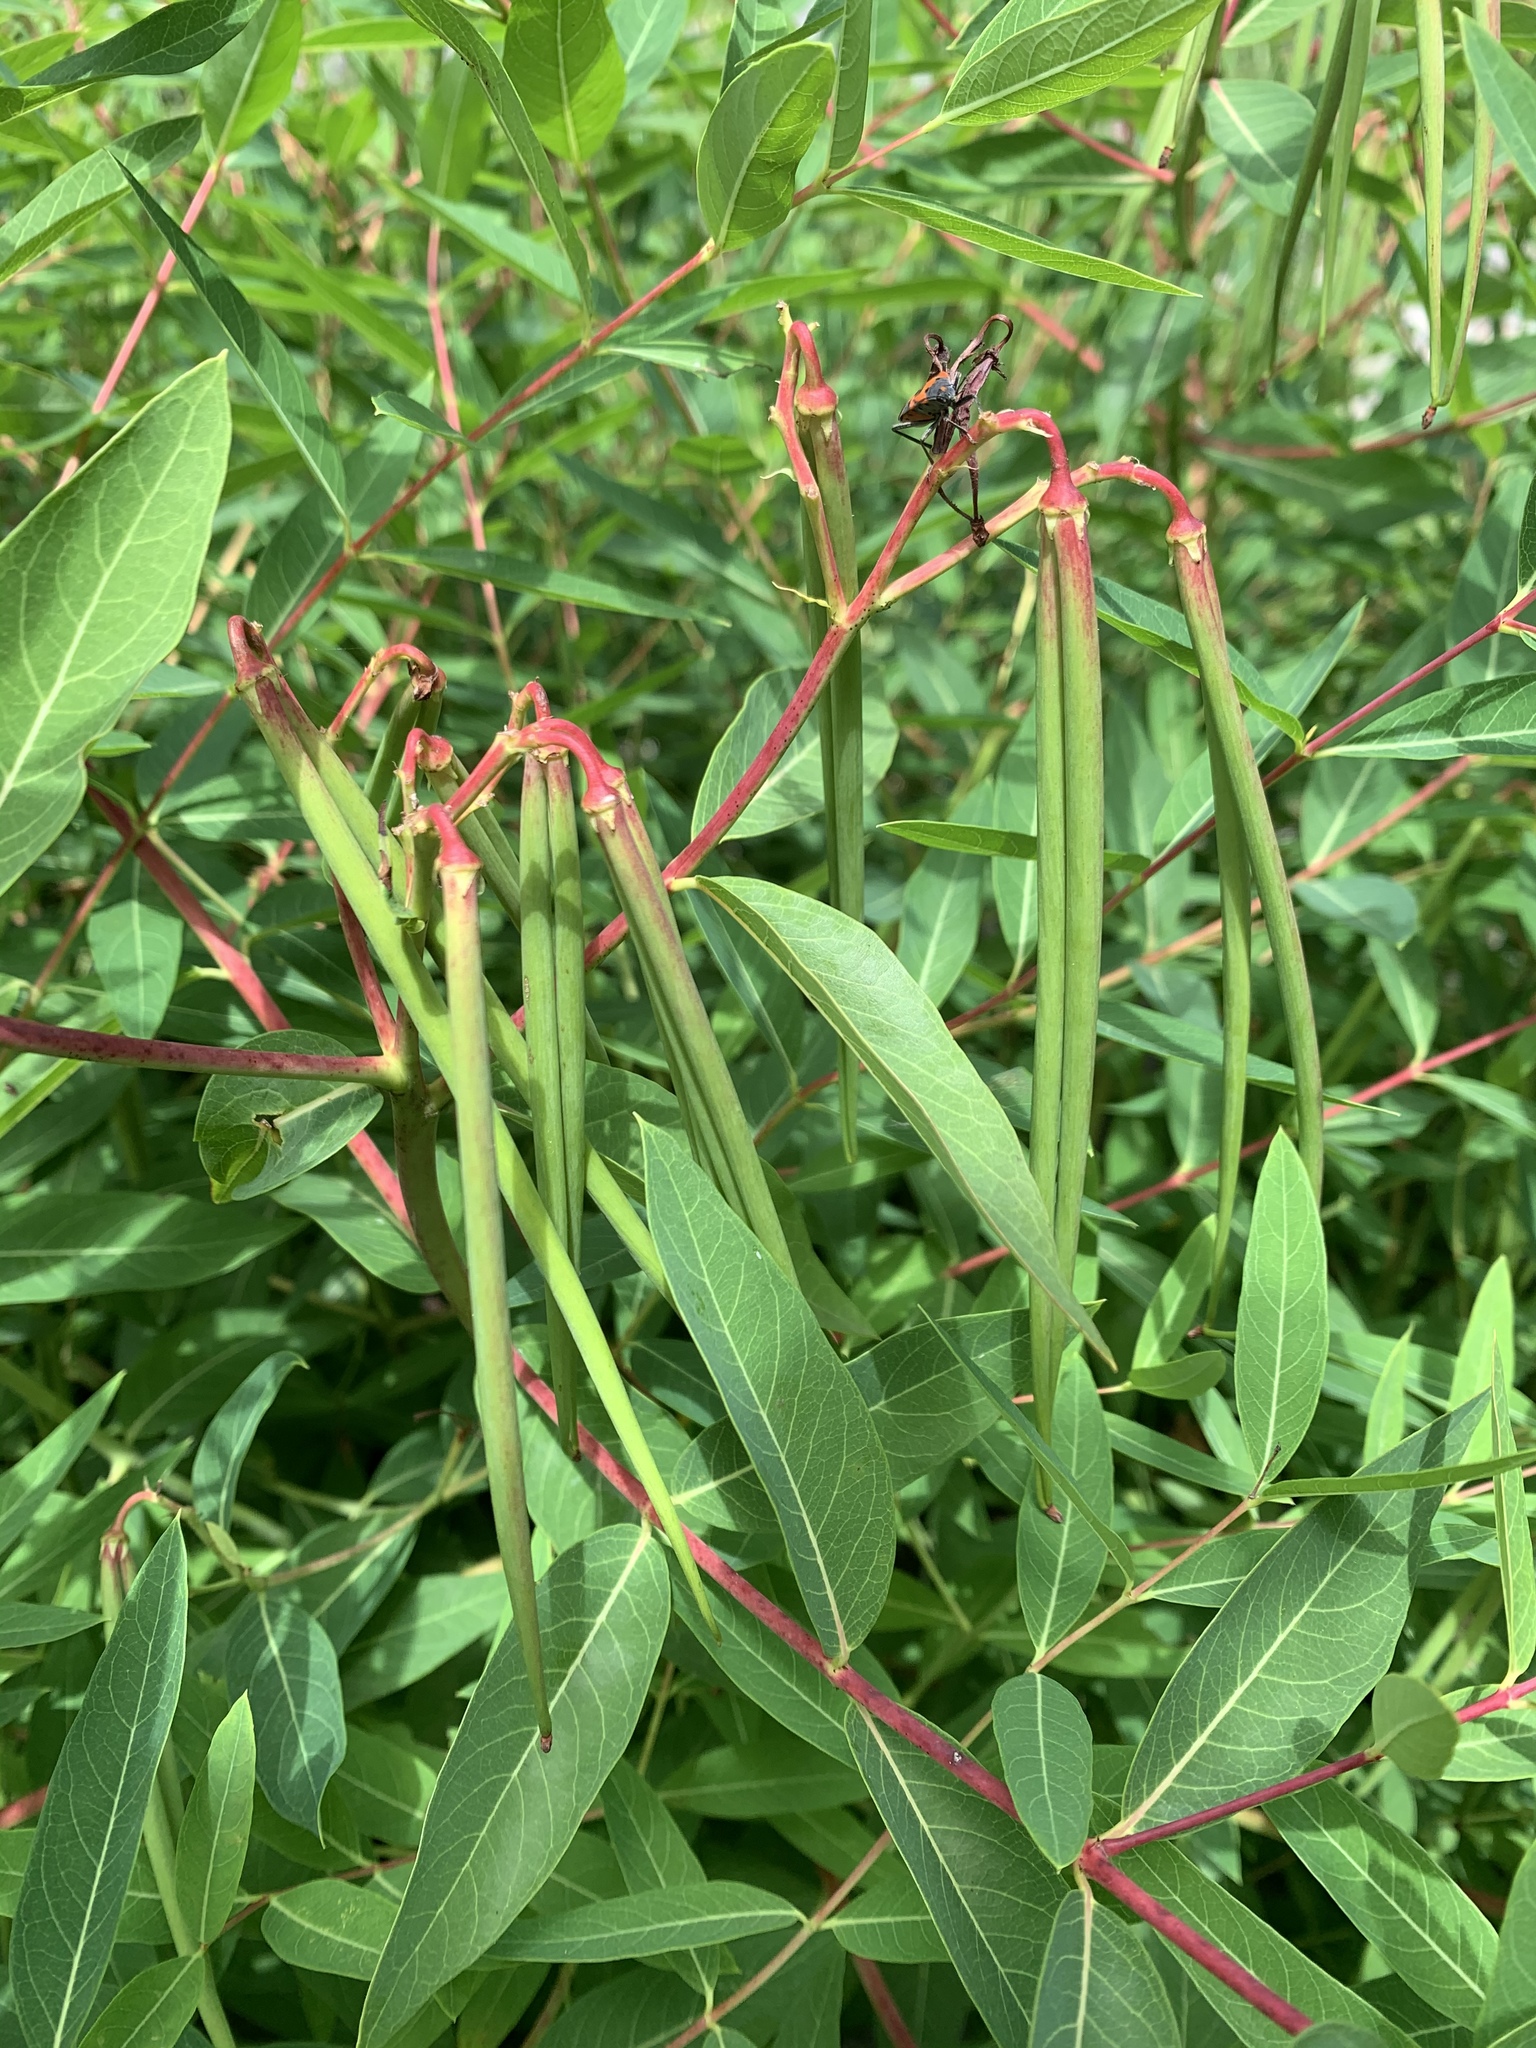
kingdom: Plantae
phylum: Tracheophyta
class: Magnoliopsida
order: Gentianales
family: Apocynaceae
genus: Apocynum
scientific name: Apocynum cannabinum
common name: Hemp dogbane
